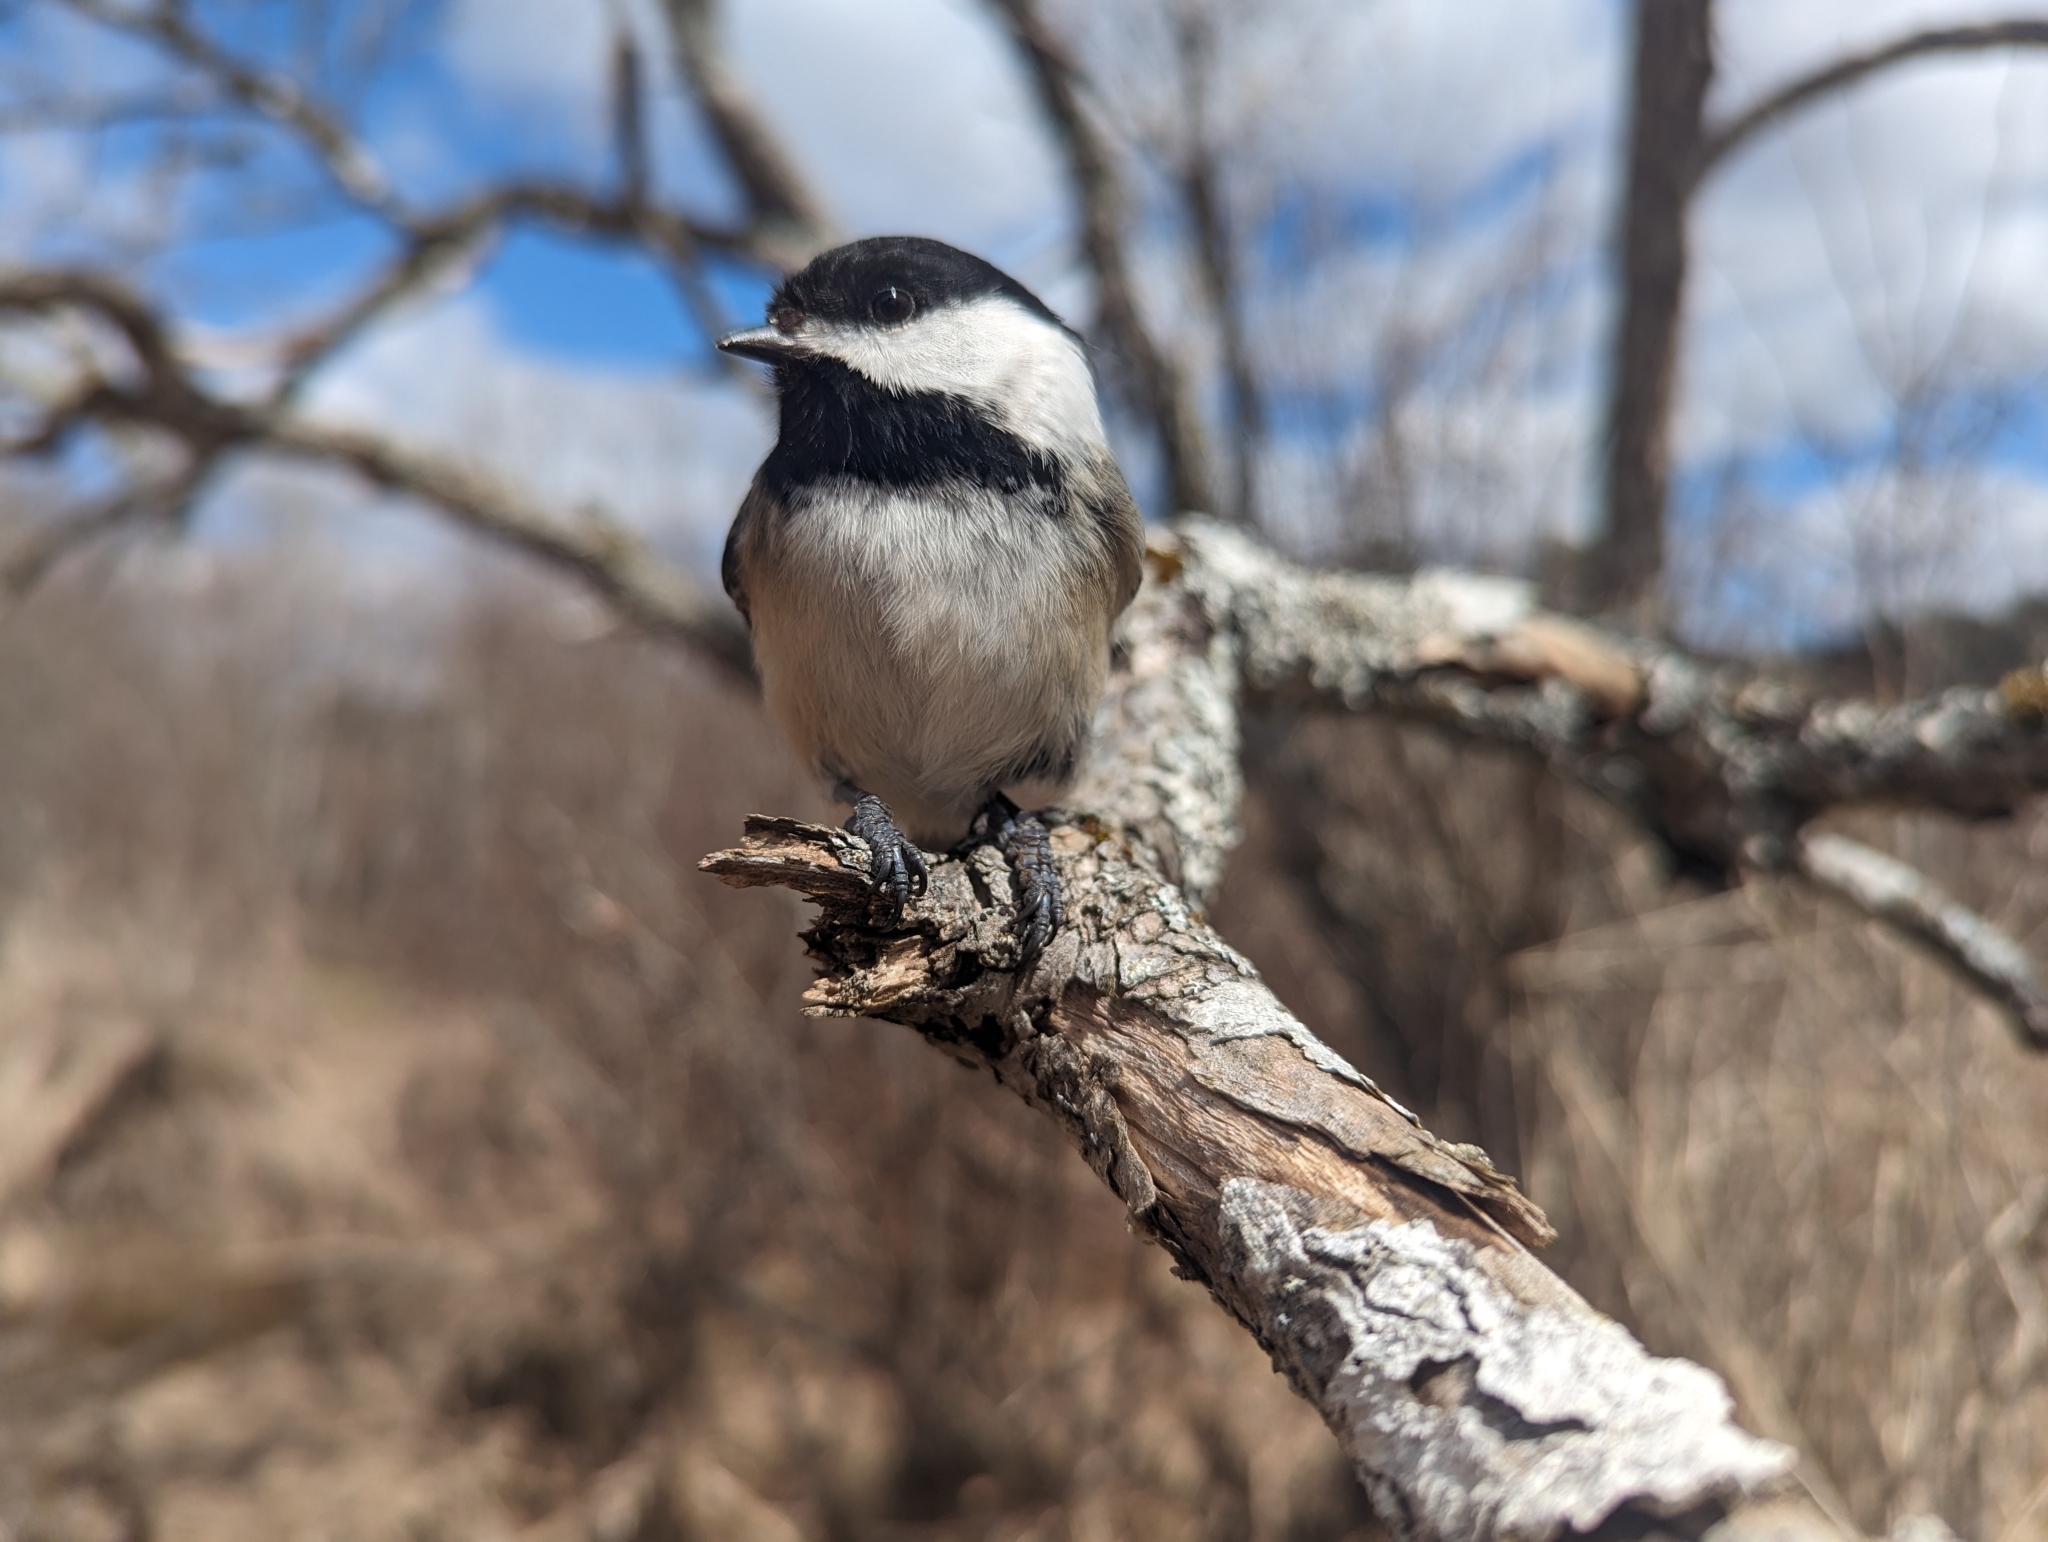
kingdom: Animalia
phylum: Chordata
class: Aves
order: Passeriformes
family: Paridae
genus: Poecile
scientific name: Poecile atricapillus
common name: Black-capped chickadee
